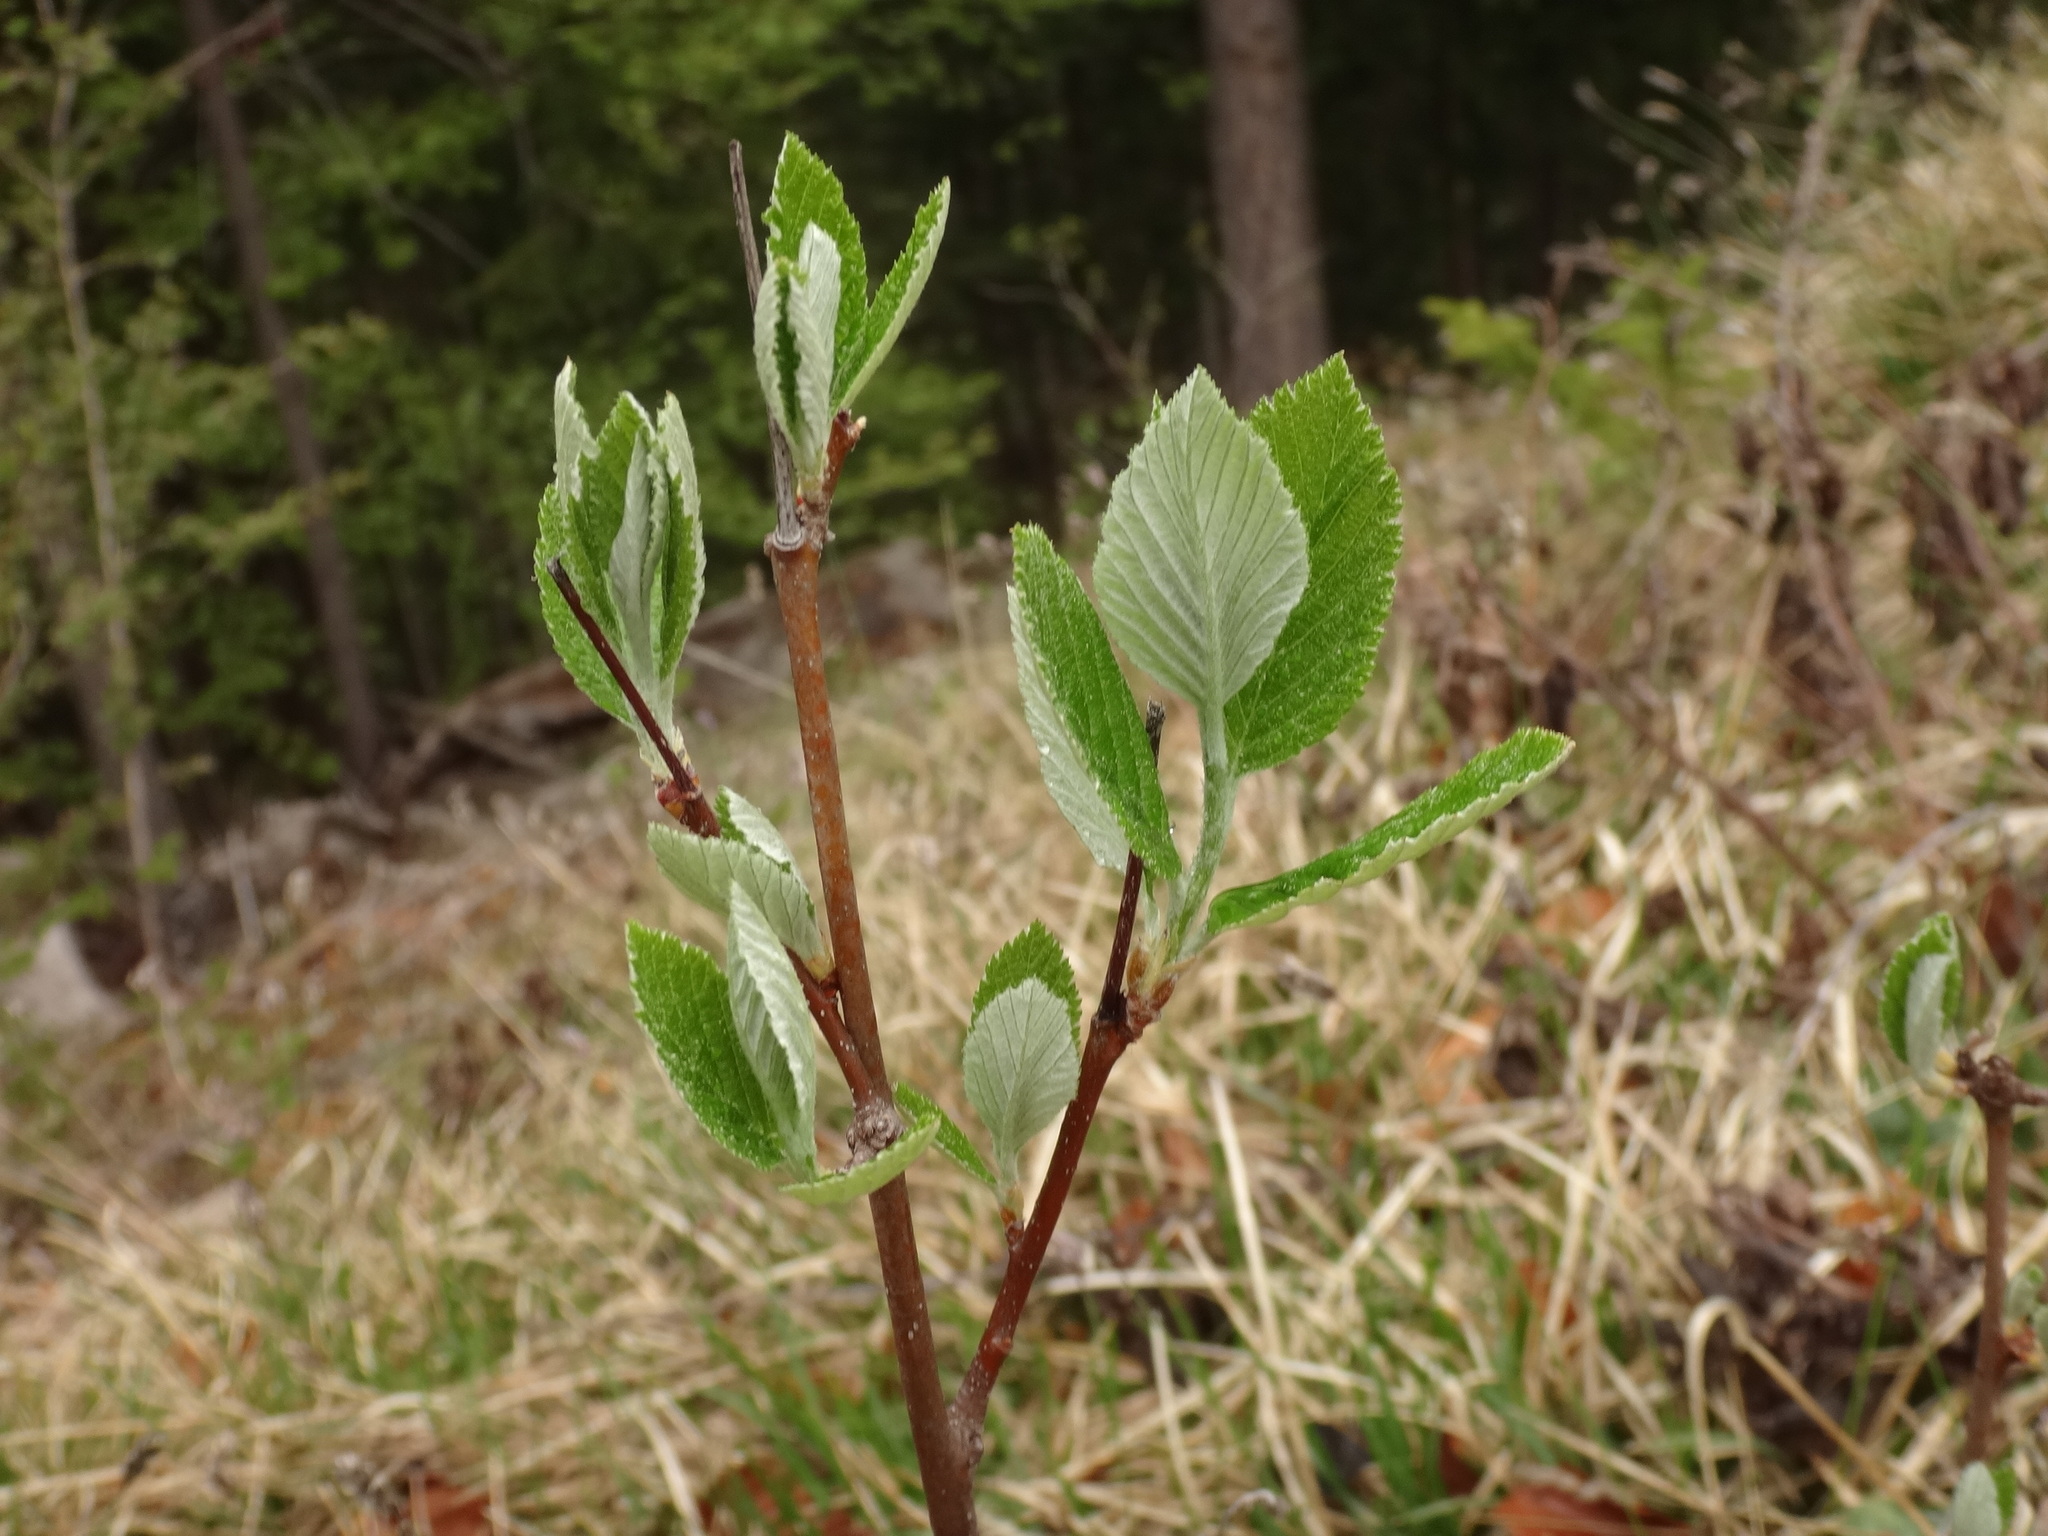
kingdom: Plantae
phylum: Tracheophyta
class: Magnoliopsida
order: Rosales
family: Rosaceae
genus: Aria
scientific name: Aria edulis
